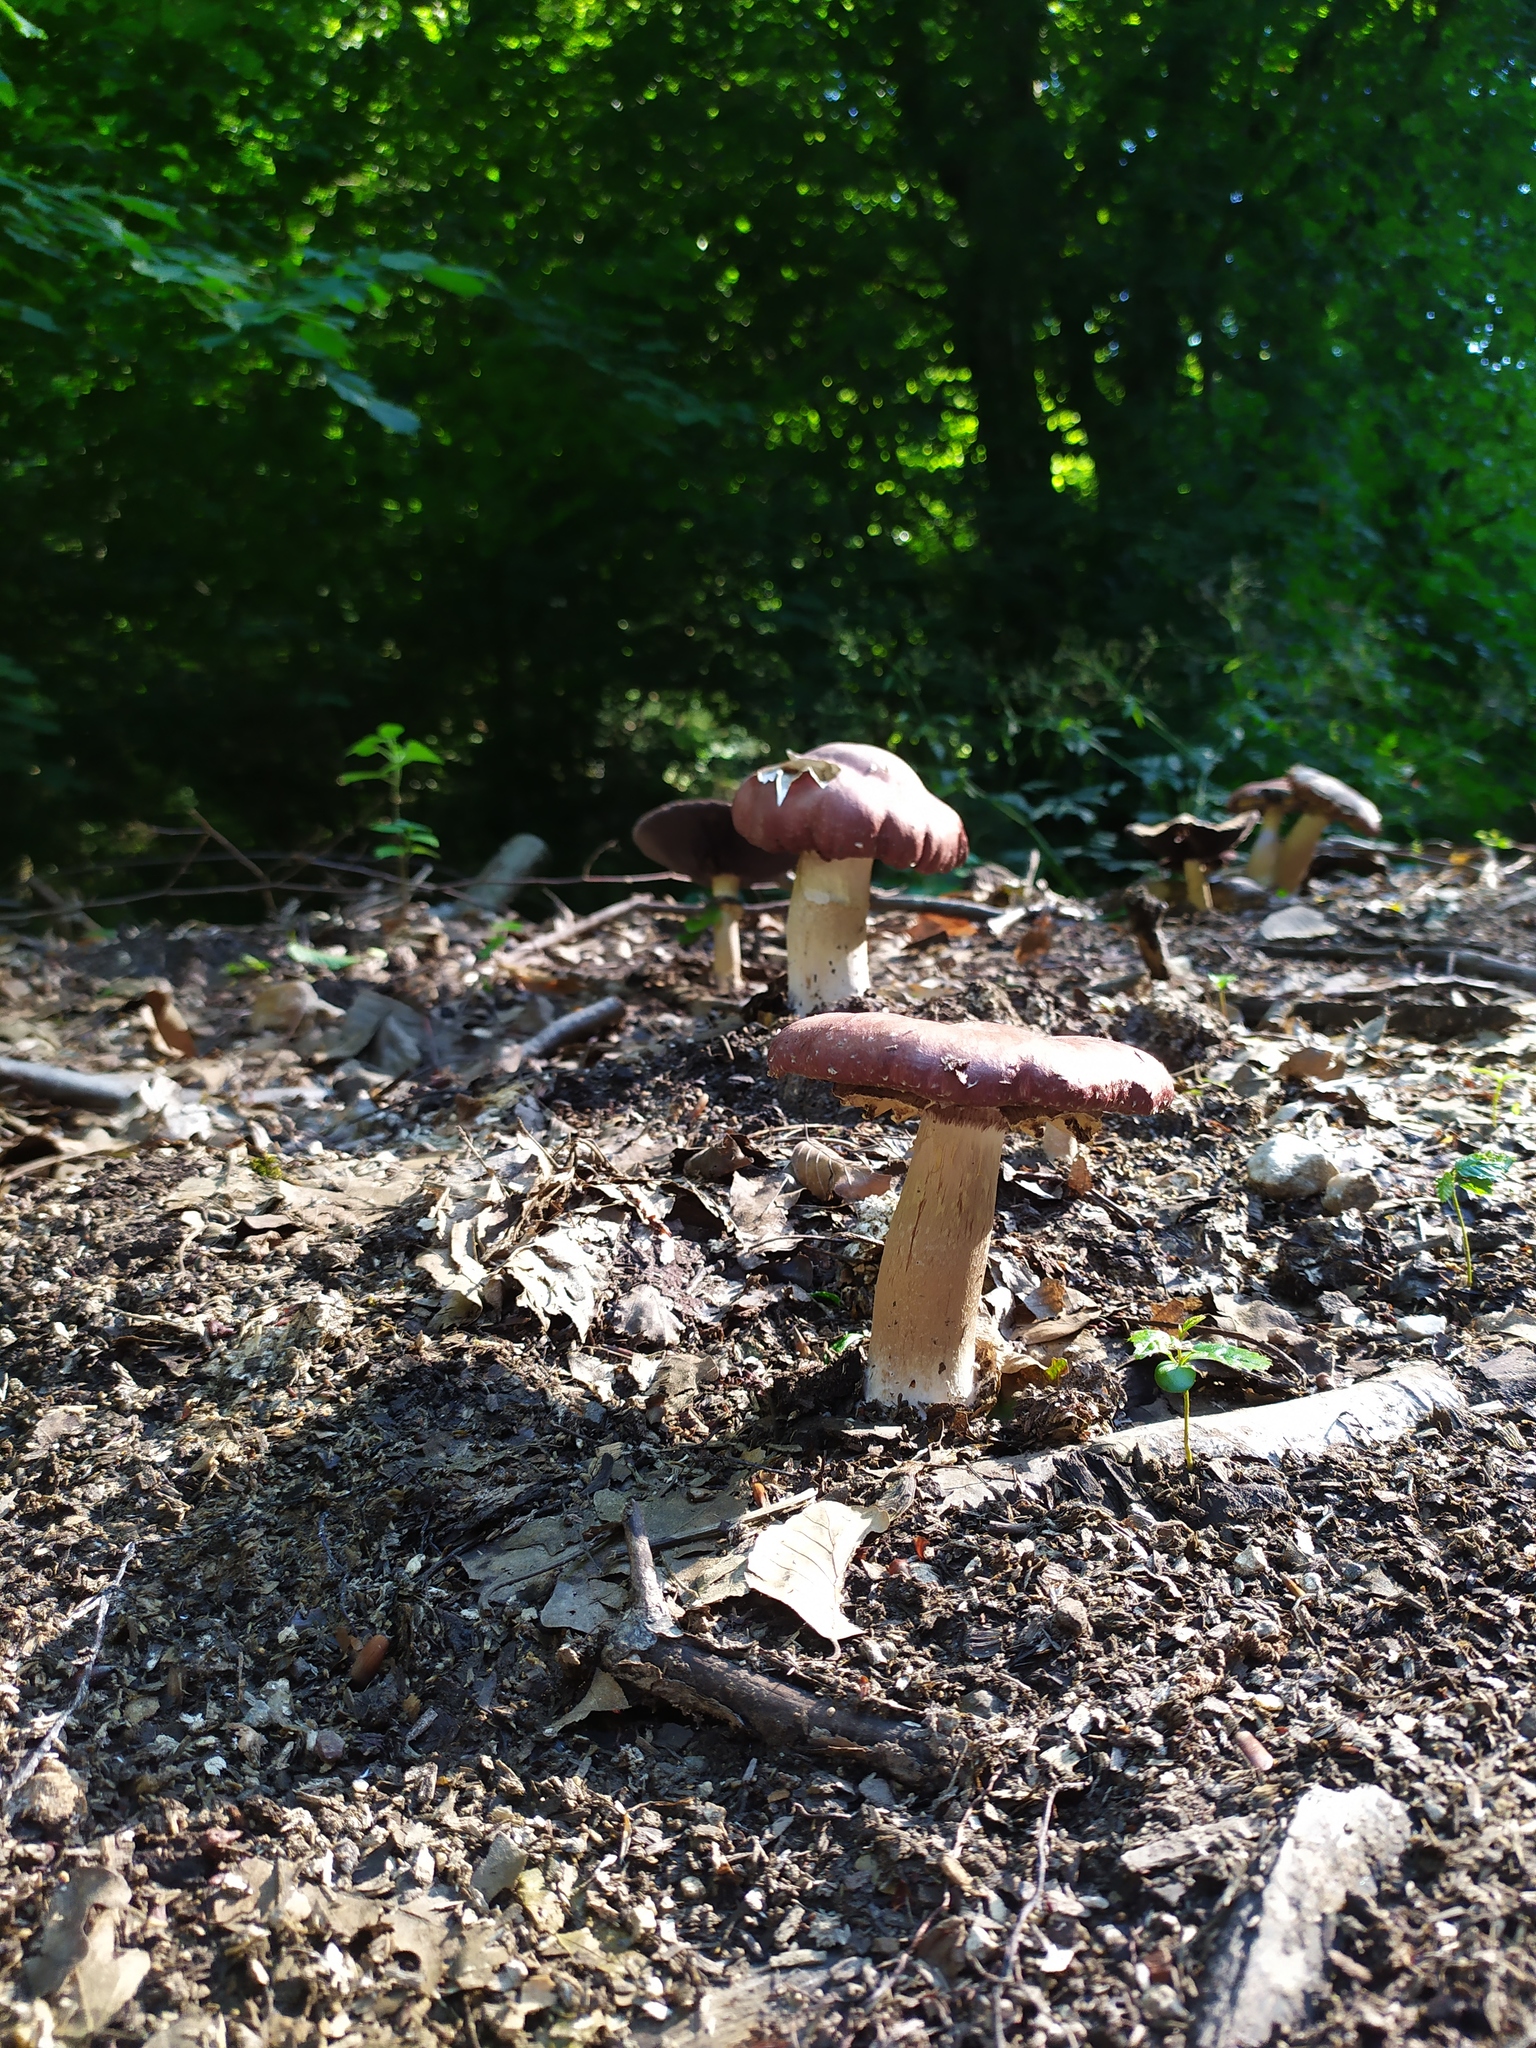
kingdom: Fungi
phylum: Basidiomycota
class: Agaricomycetes
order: Agaricales
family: Strophariaceae
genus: Stropharia
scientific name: Stropharia rugosoannulata
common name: Wine roundhead
